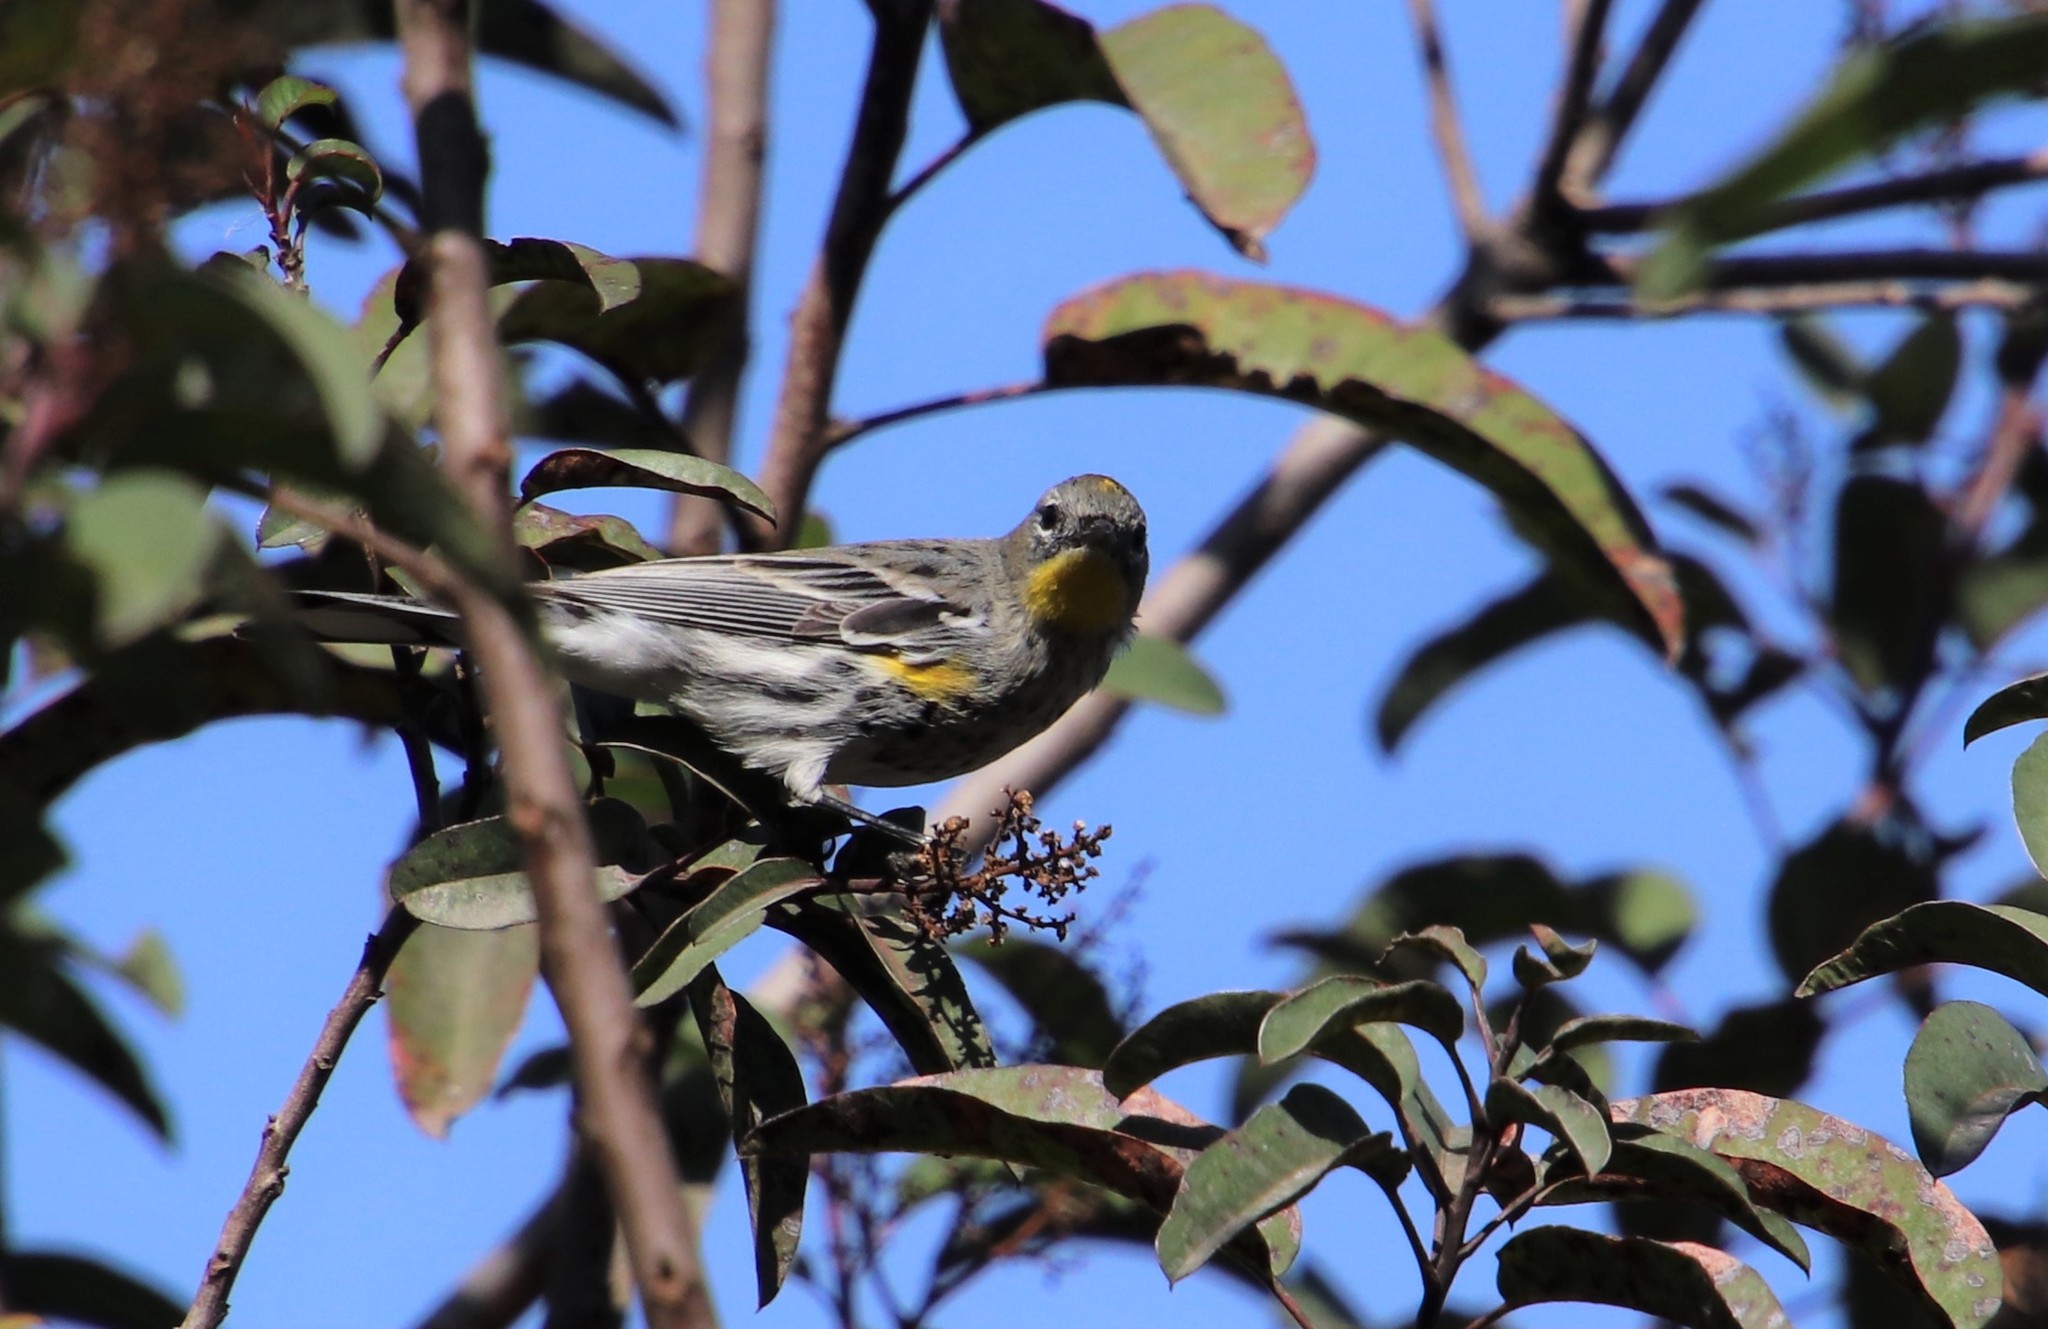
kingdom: Animalia
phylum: Chordata
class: Aves
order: Passeriformes
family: Parulidae
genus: Setophaga
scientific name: Setophaga auduboni
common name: Audubon's warbler
